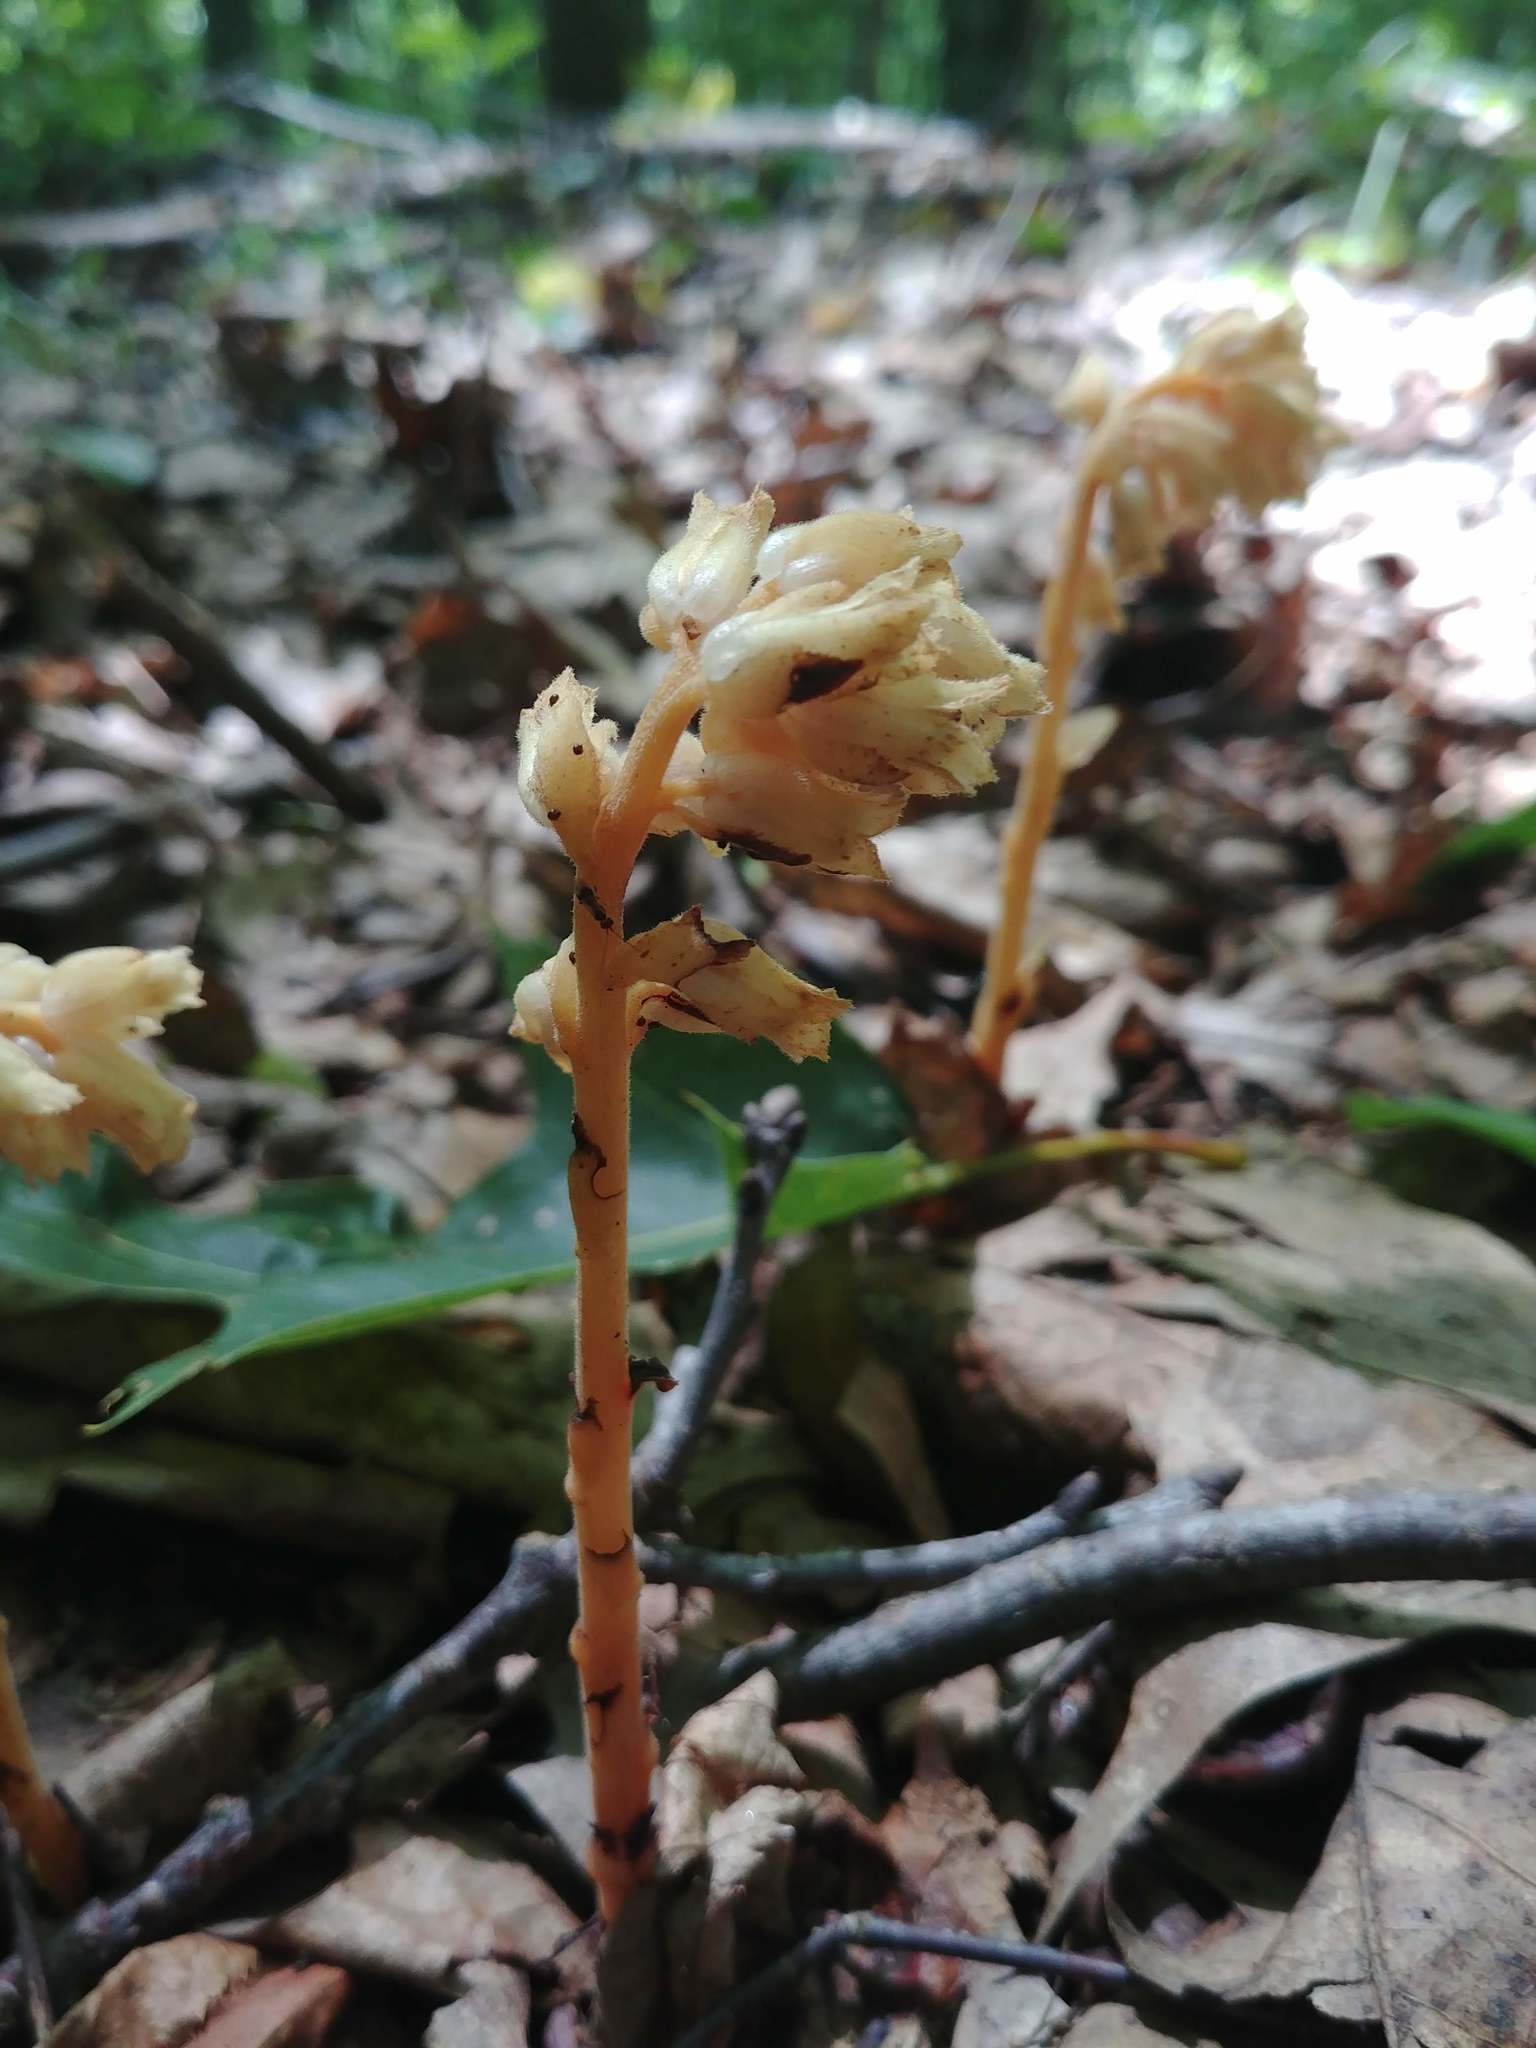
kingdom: Plantae
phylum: Tracheophyta
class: Magnoliopsida
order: Ericales
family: Ericaceae
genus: Hypopitys
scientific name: Hypopitys monotropa
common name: Yellow bird's-nest
